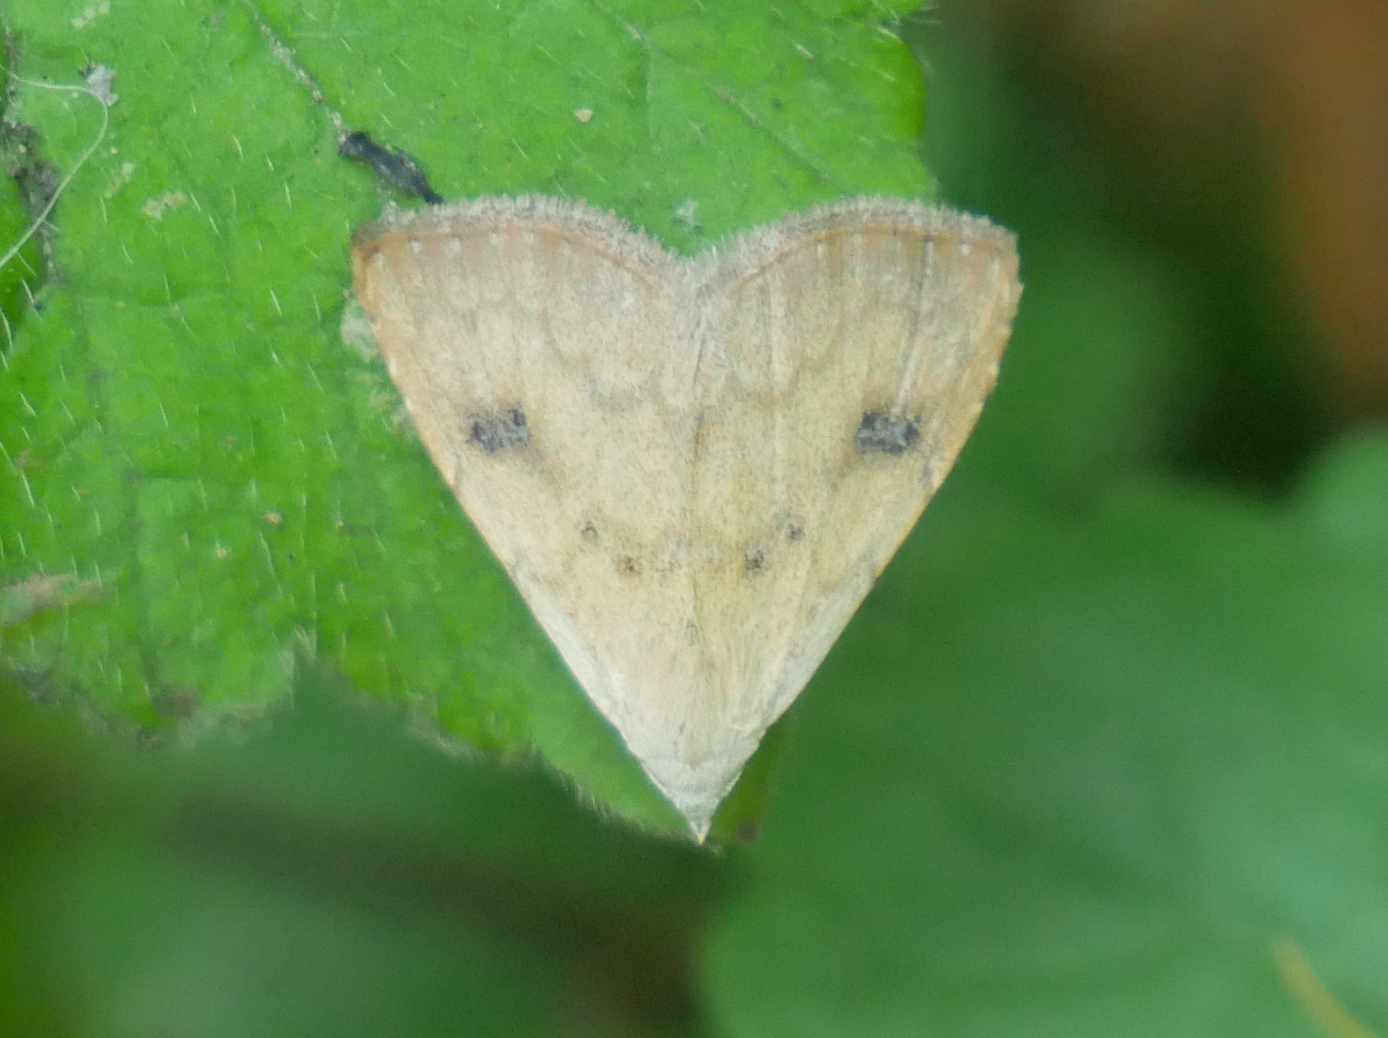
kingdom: Animalia
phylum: Arthropoda
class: Insecta
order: Lepidoptera
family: Erebidae
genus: Rivula
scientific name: Rivula sericealis
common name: Straw dot
